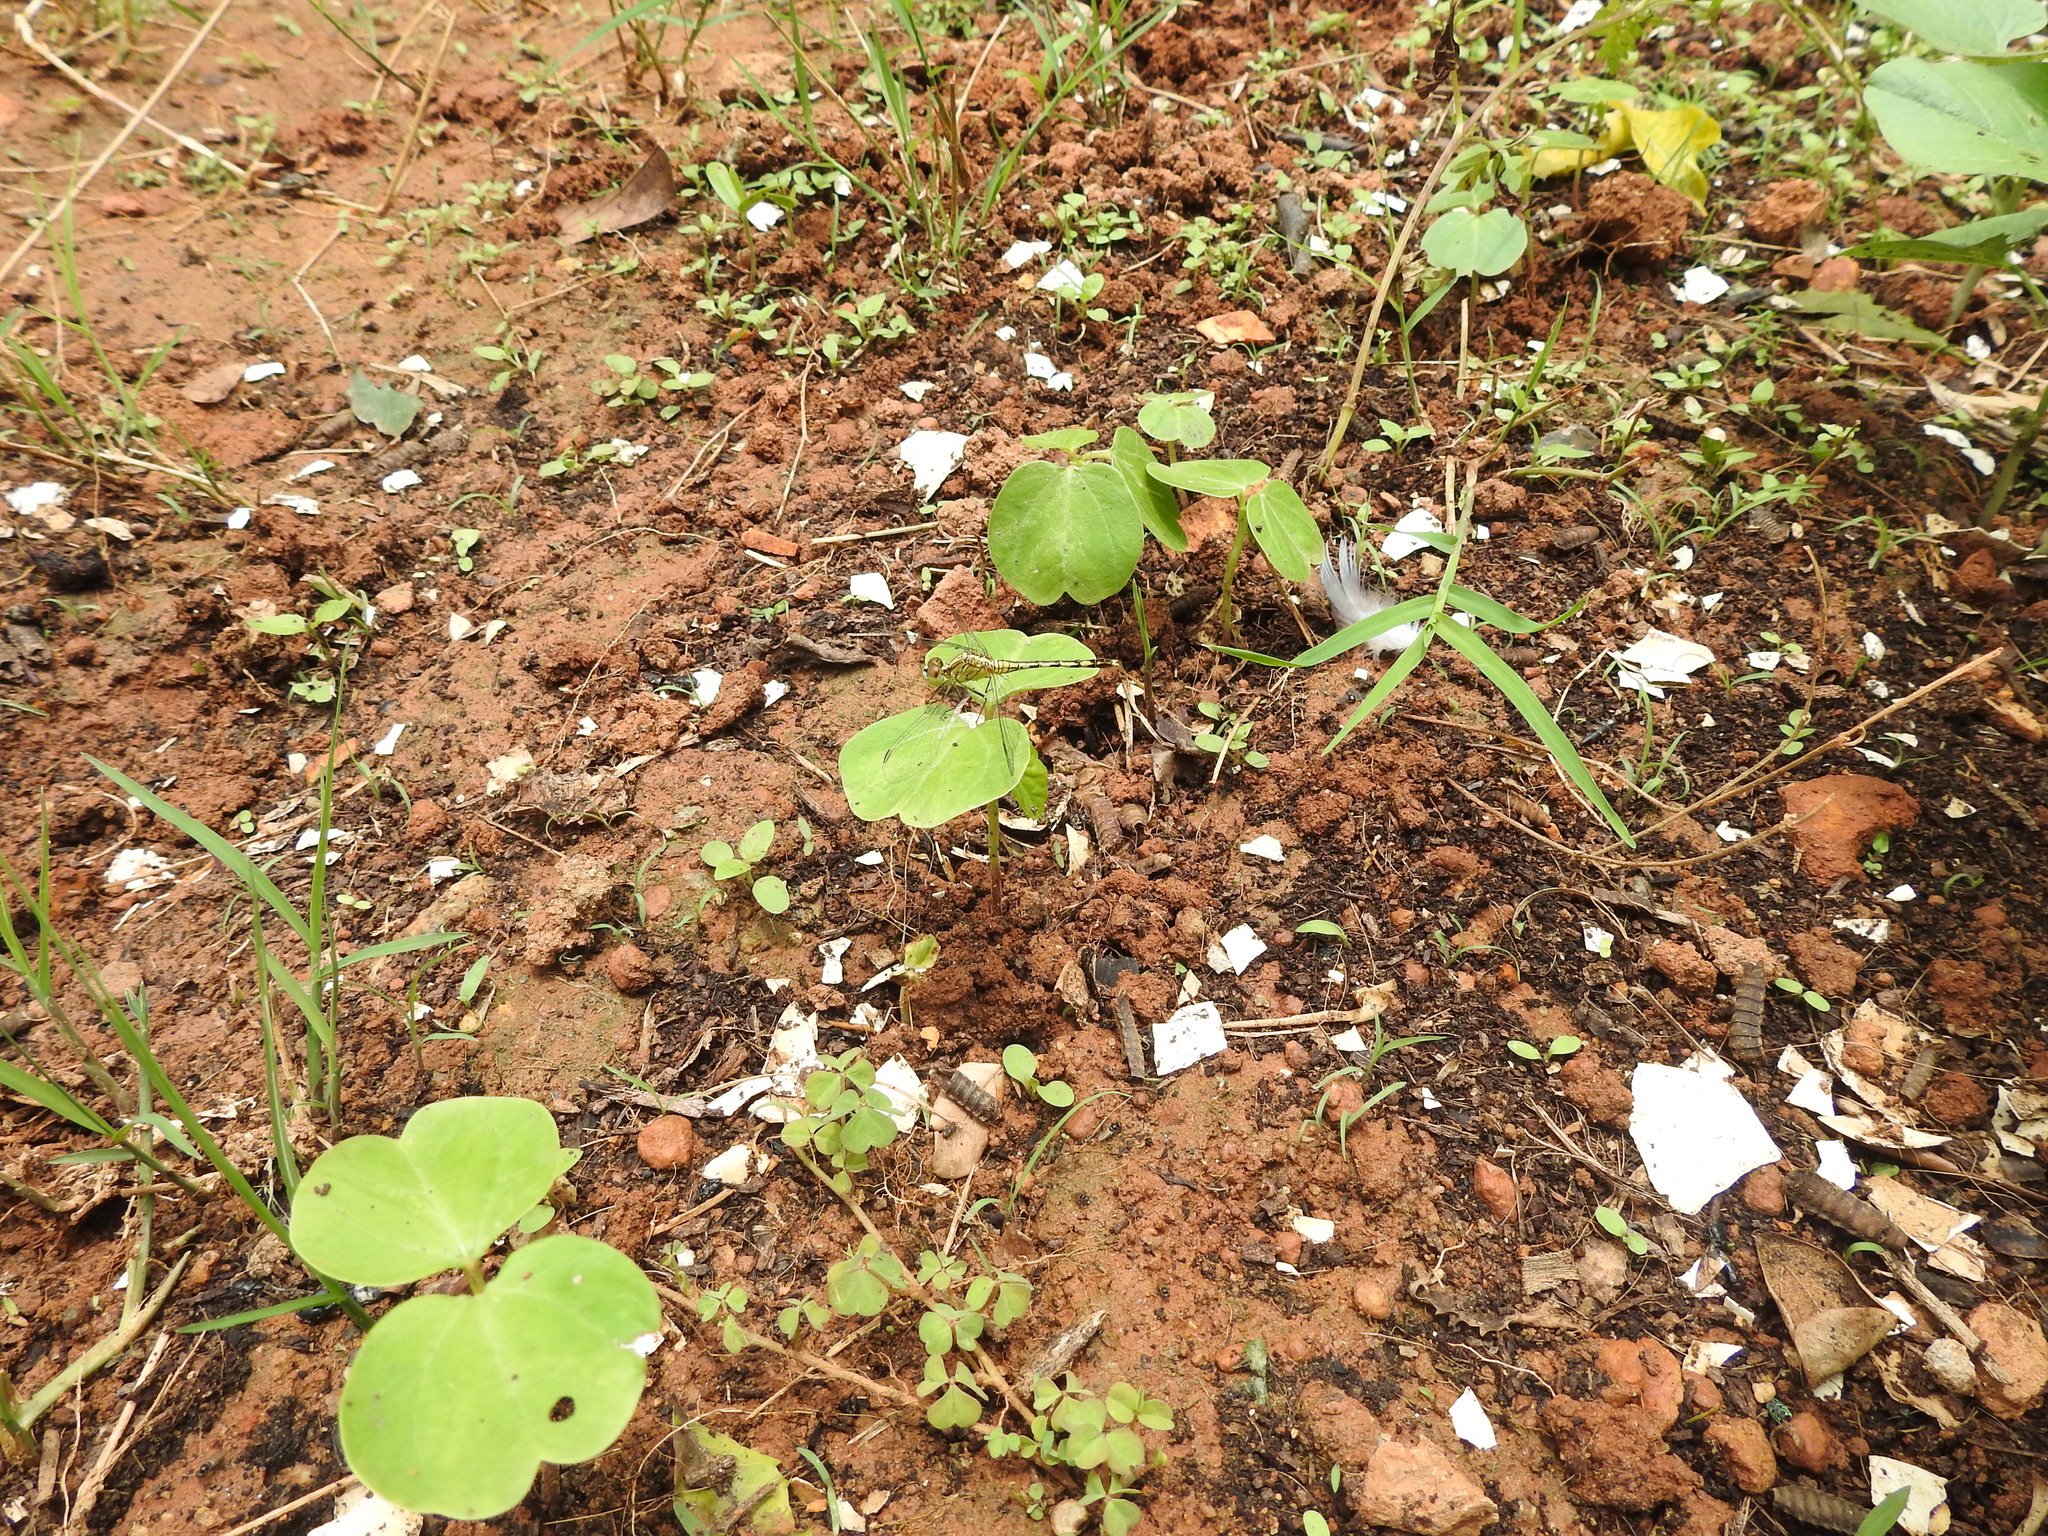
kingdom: Animalia
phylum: Arthropoda
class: Insecta
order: Odonata
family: Libellulidae
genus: Diplacodes
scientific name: Diplacodes trivialis
